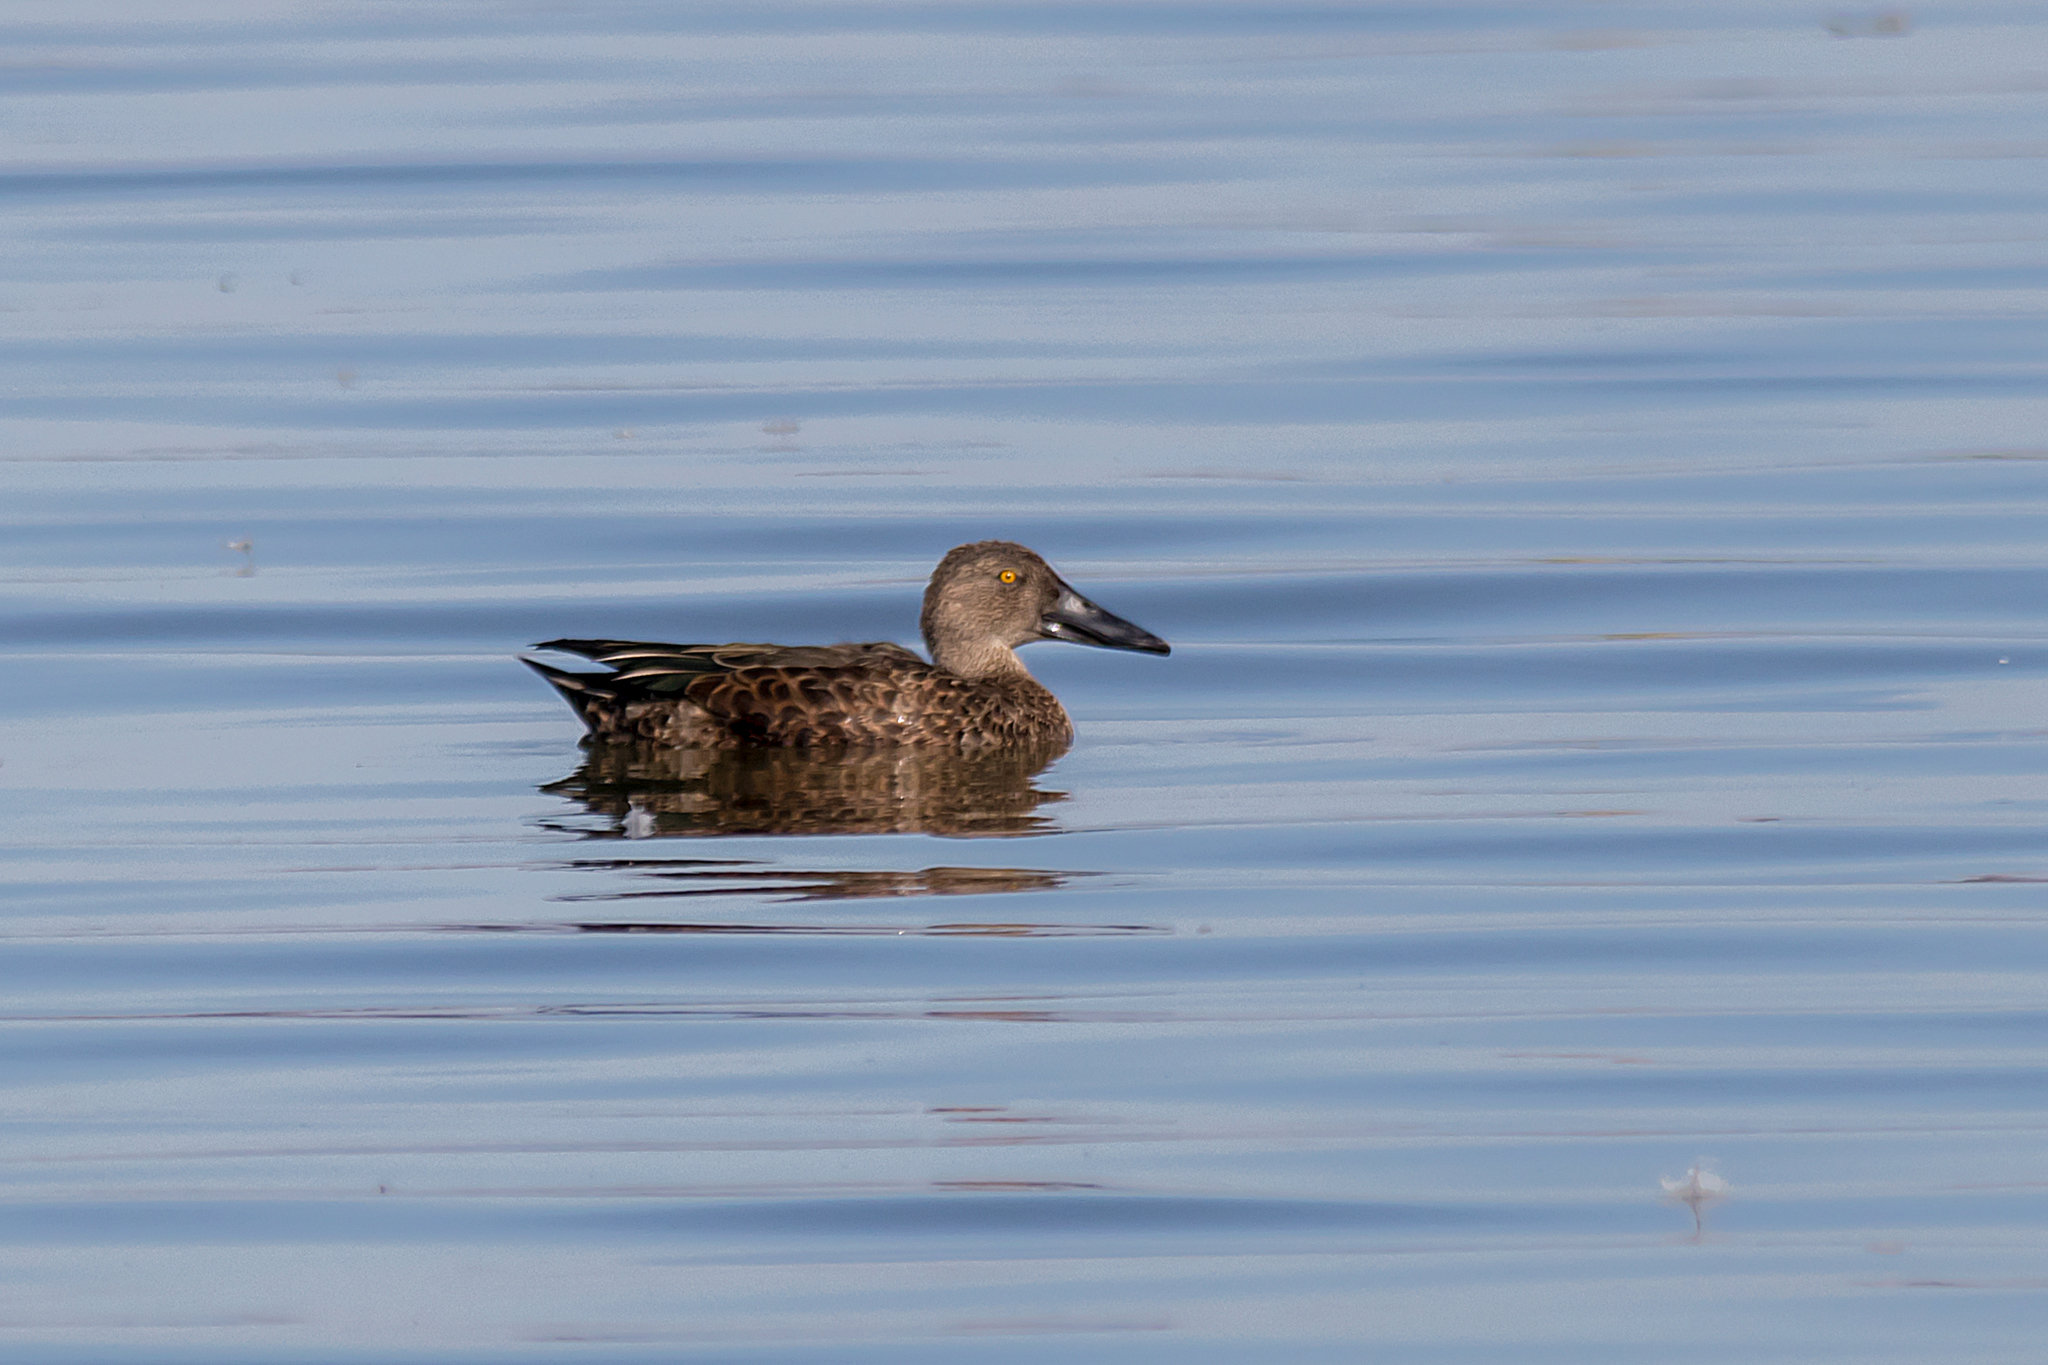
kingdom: Animalia
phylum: Chordata
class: Aves
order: Anseriformes
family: Anatidae
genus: Spatula
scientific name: Spatula rhynchotis
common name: Australian shoveler
